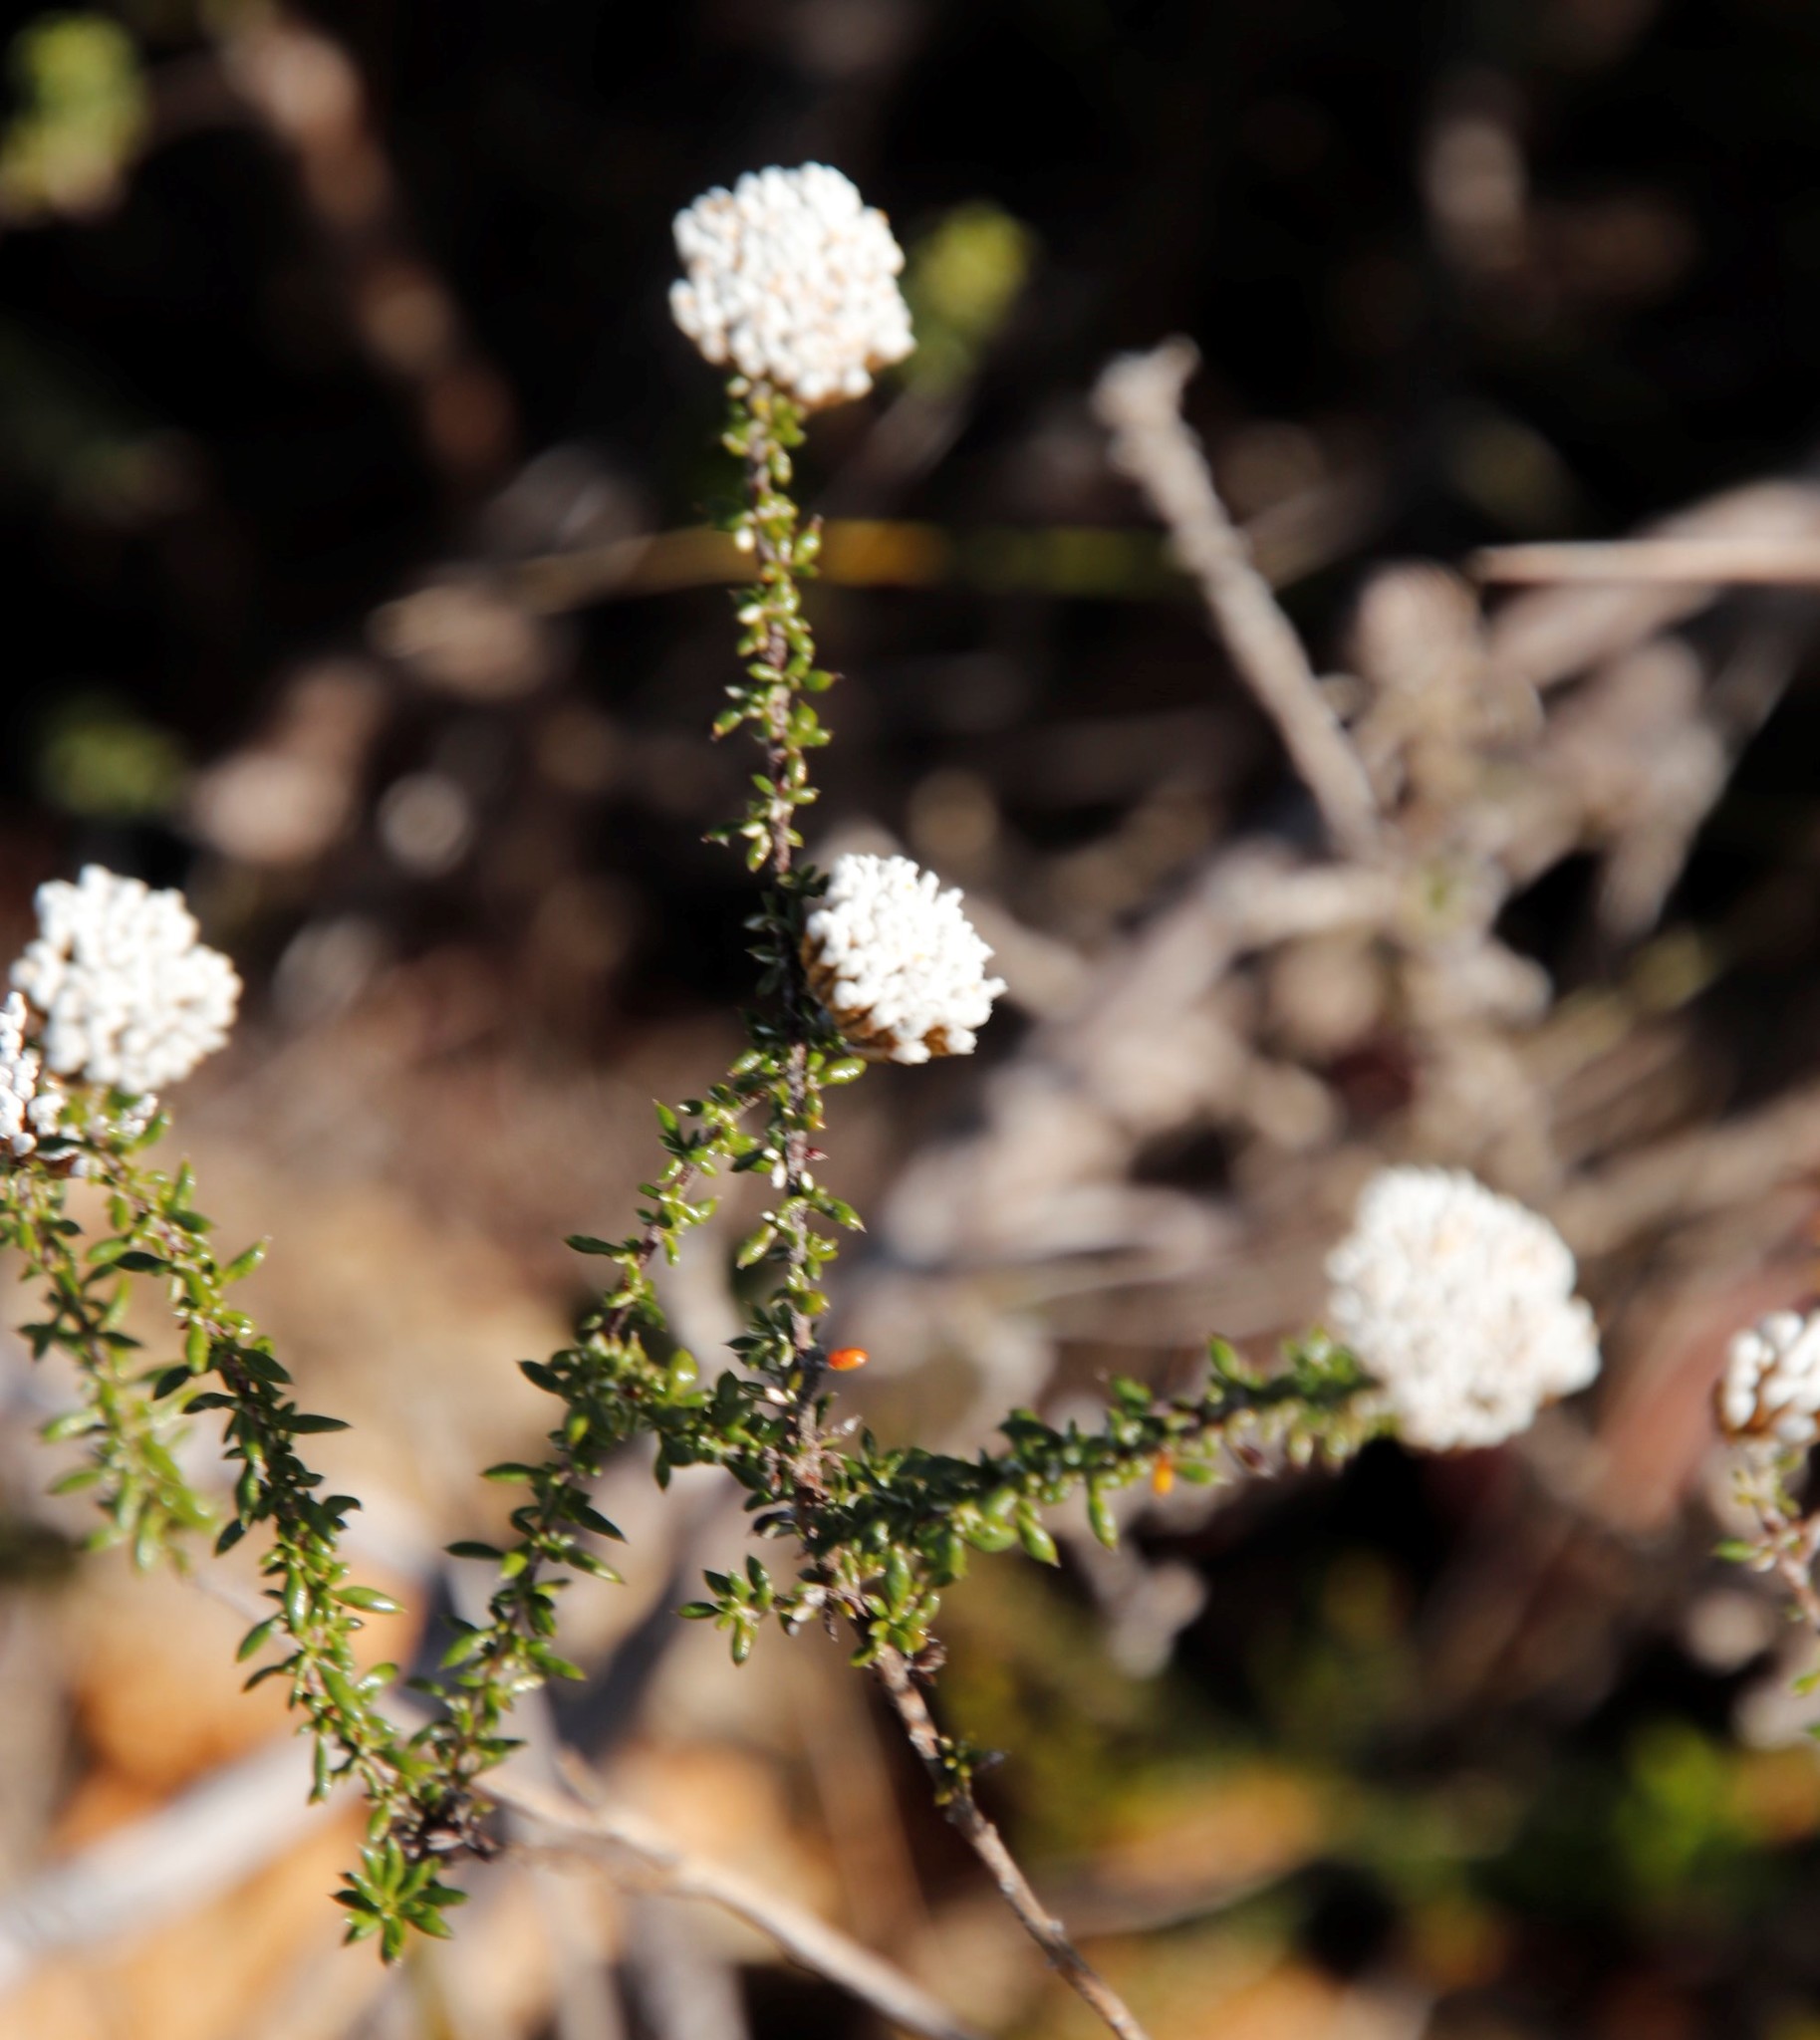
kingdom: Plantae
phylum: Tracheophyta
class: Magnoliopsida
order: Asterales
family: Asteraceae
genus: Metalasia
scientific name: Metalasia brevifolia
